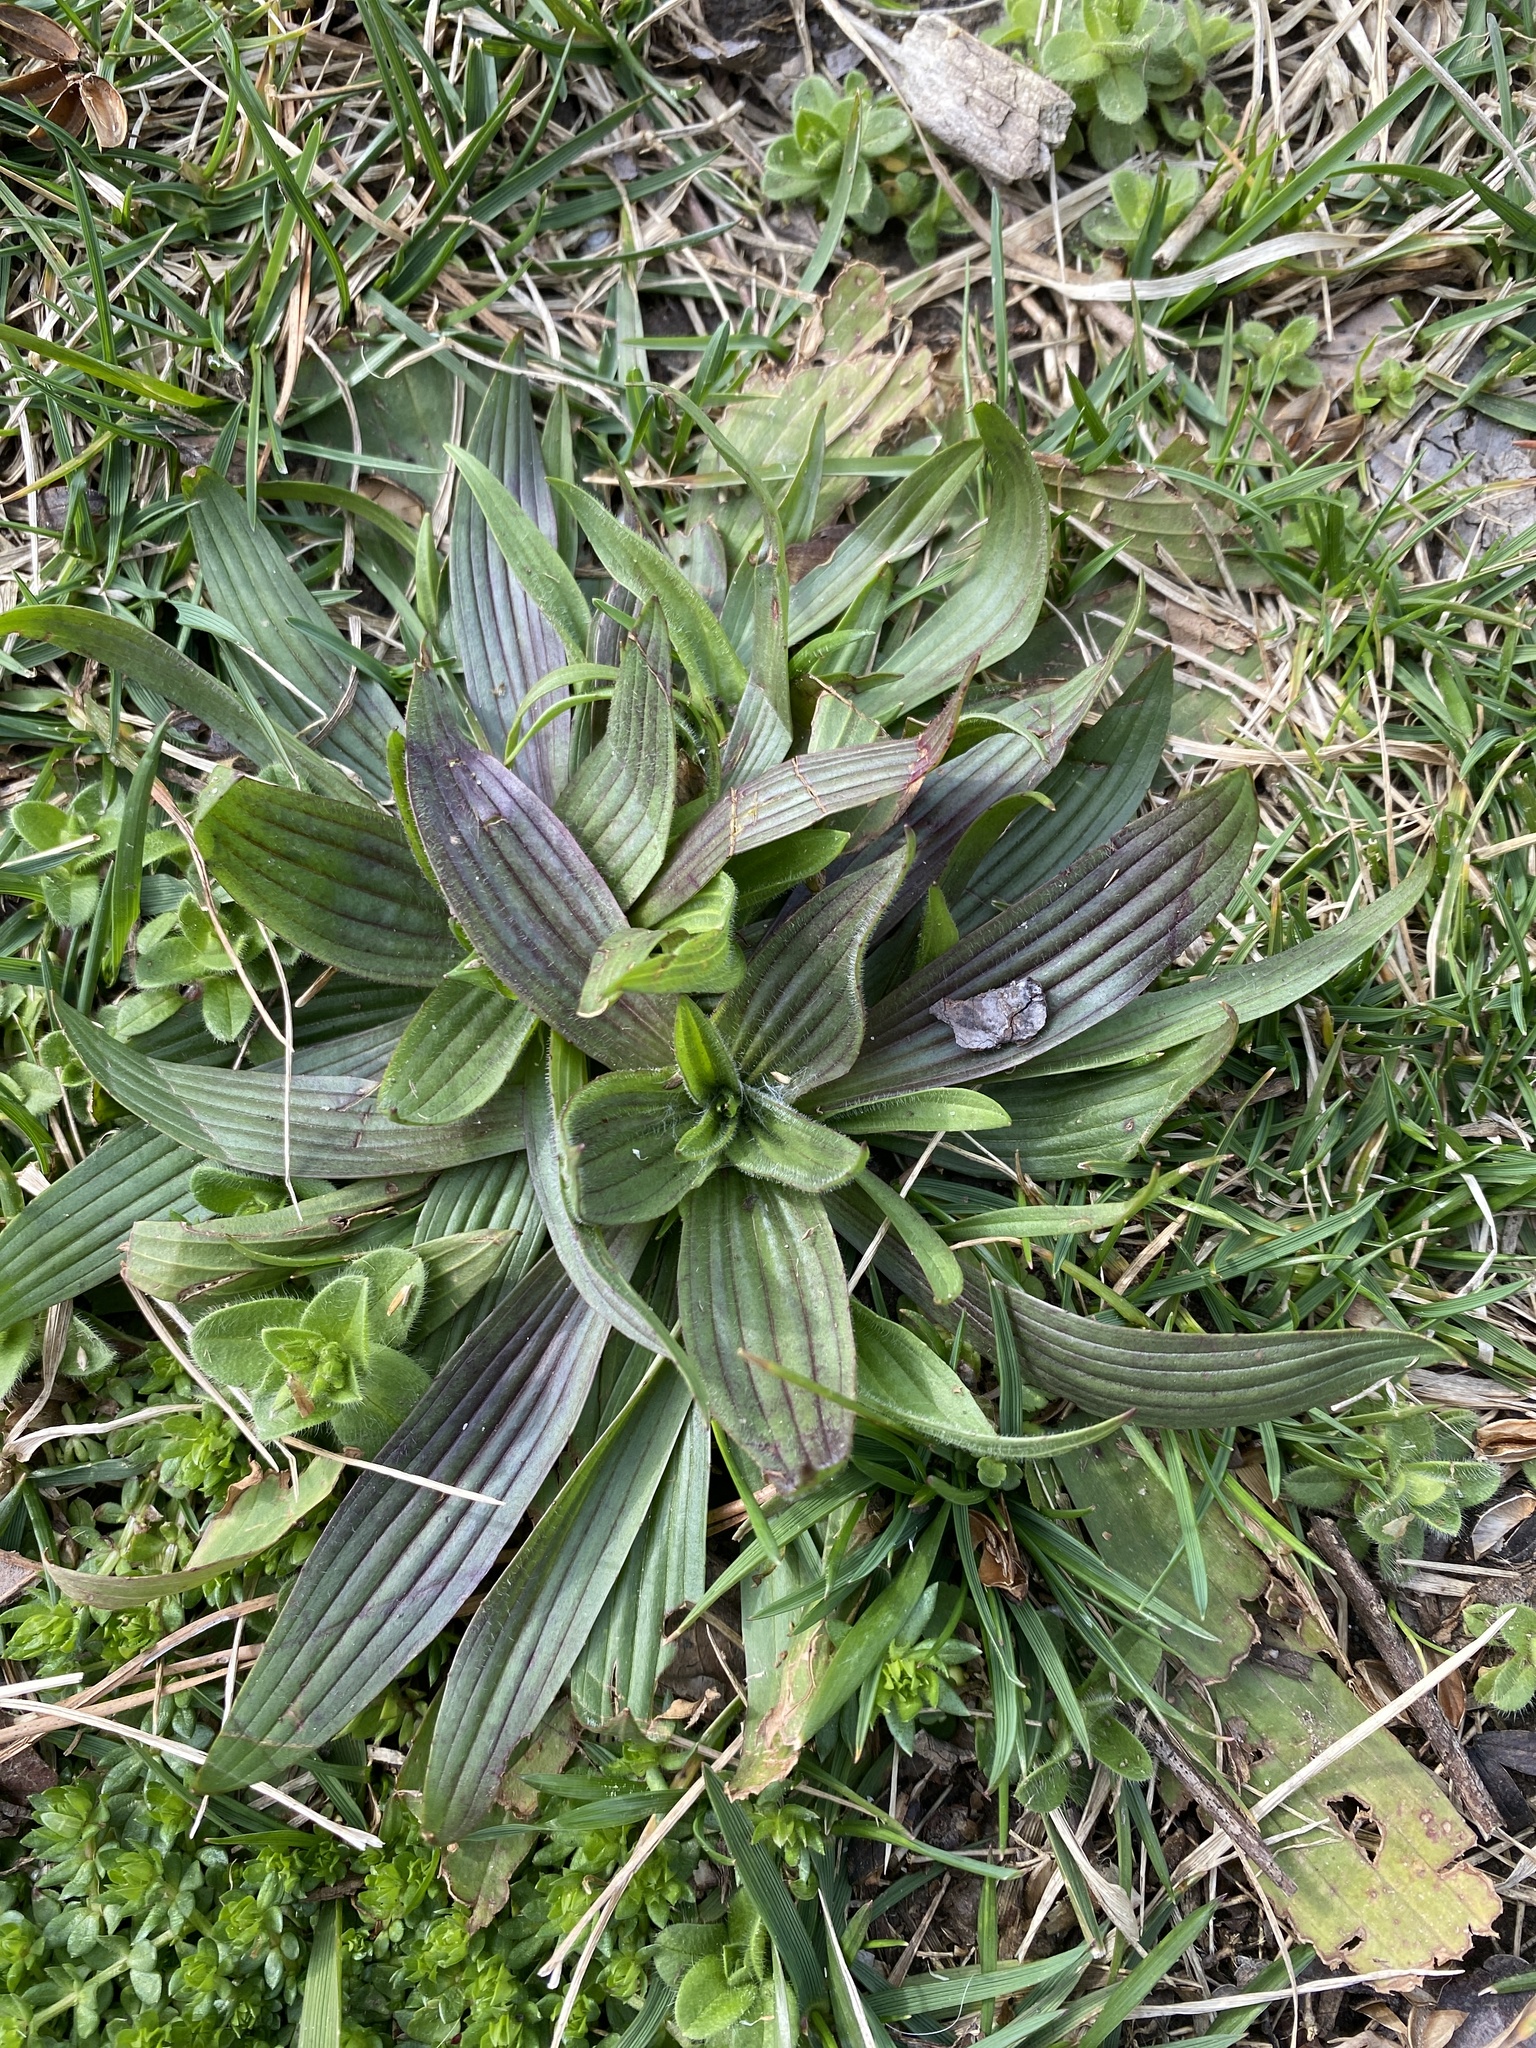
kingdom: Plantae
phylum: Tracheophyta
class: Magnoliopsida
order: Lamiales
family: Plantaginaceae
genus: Plantago
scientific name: Plantago lanceolata
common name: Ribwort plantain
